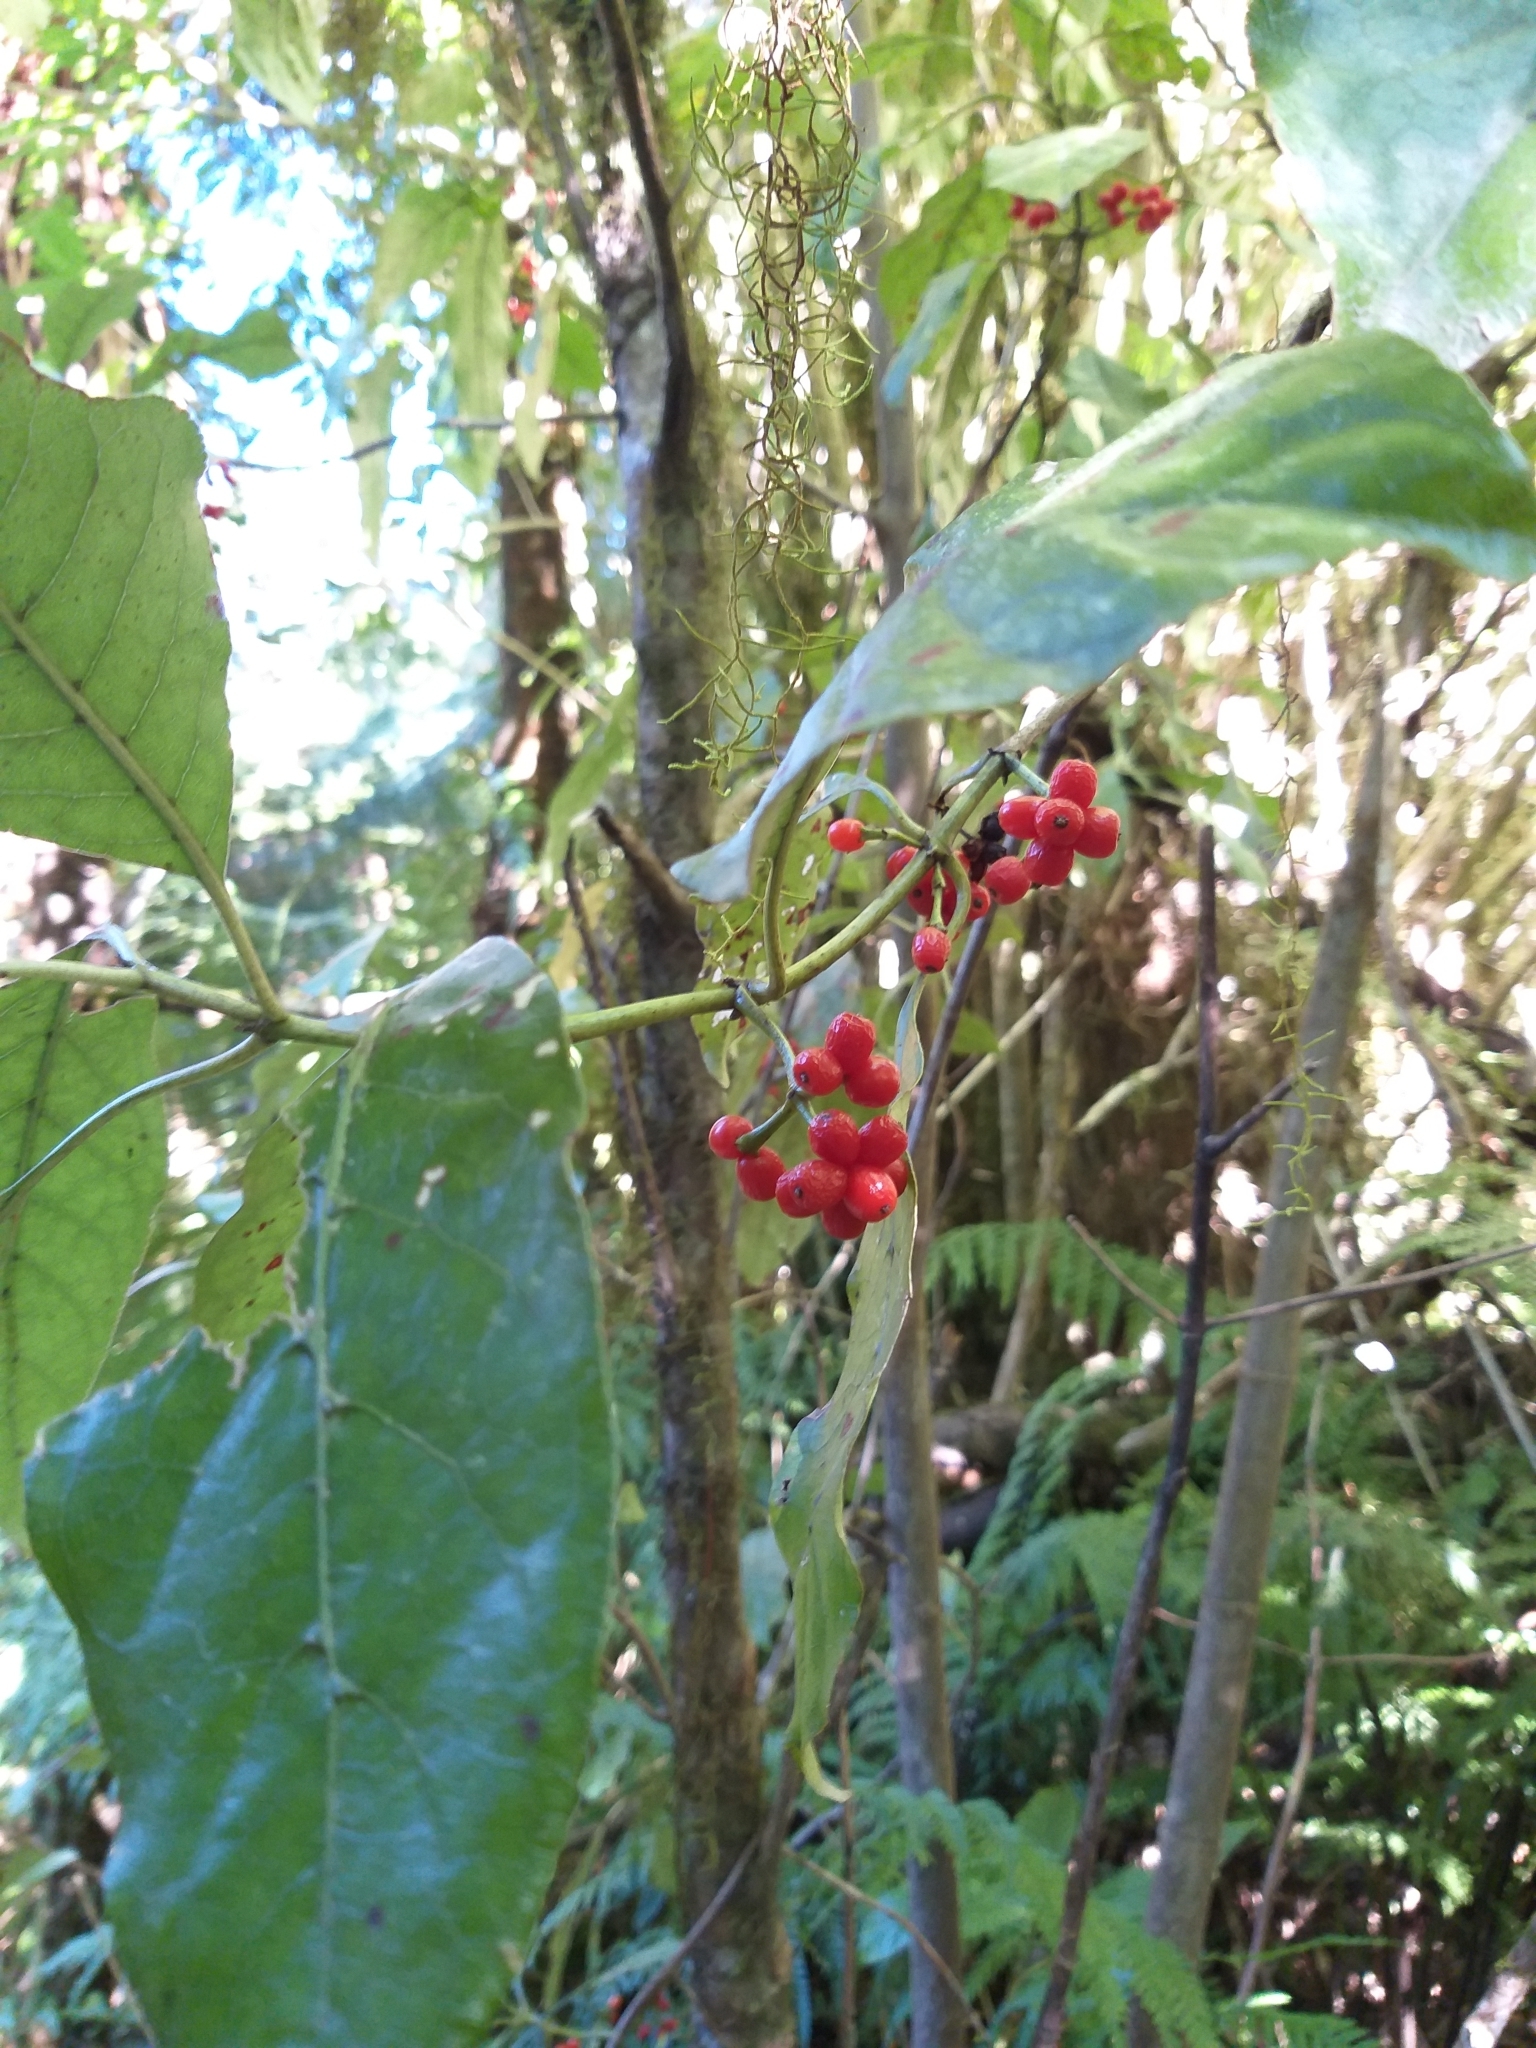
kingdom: Plantae
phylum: Tracheophyta
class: Magnoliopsida
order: Gentianales
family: Rubiaceae
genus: Coprosma
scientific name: Coprosma autumnalis
